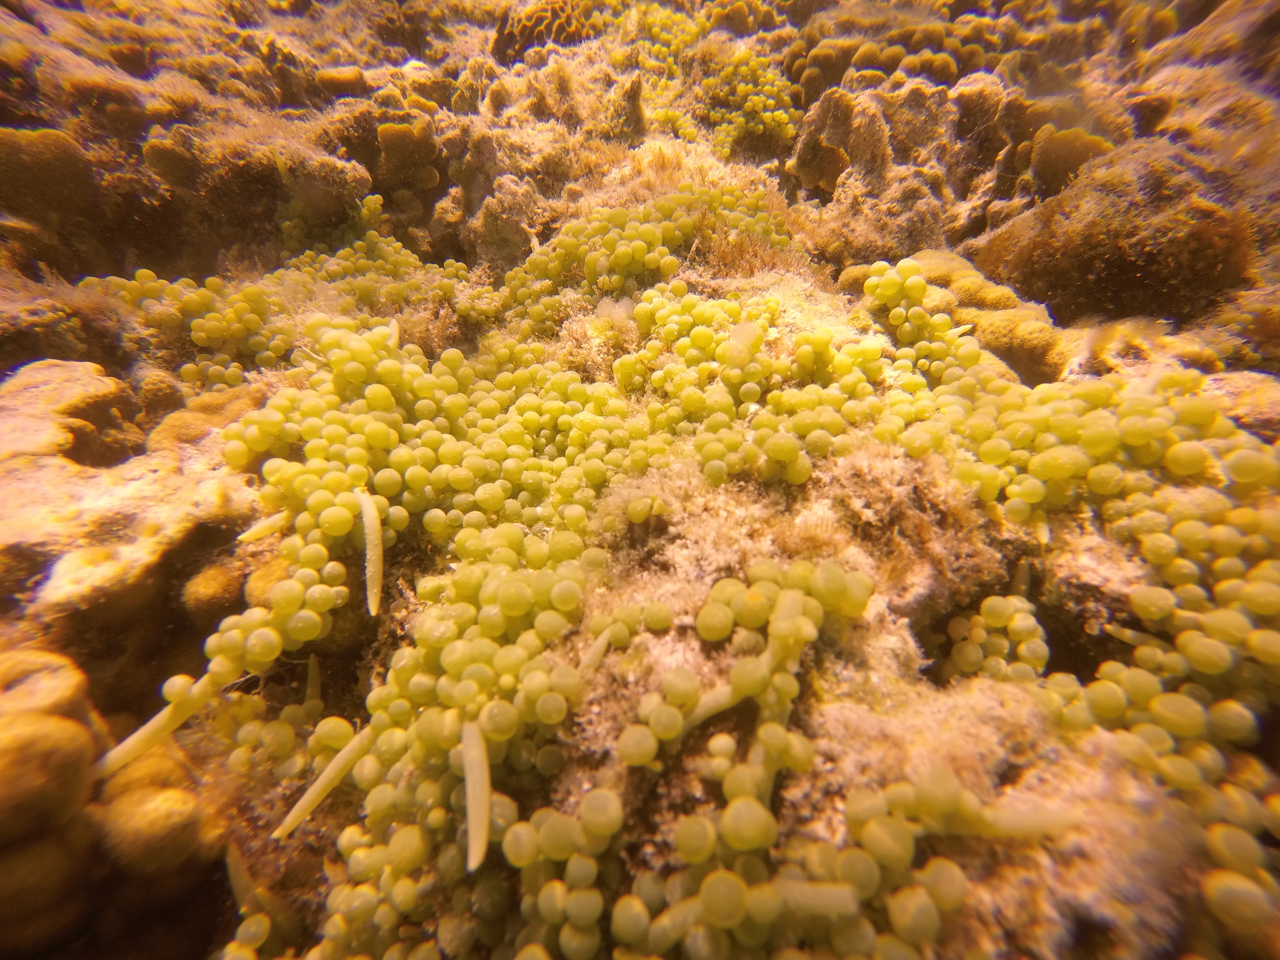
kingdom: Plantae
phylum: Chlorophyta
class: Ulvophyceae
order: Bryopsidales
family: Caulerpaceae
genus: Caulerpa
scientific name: Caulerpa racemosa
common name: Green grape algae
